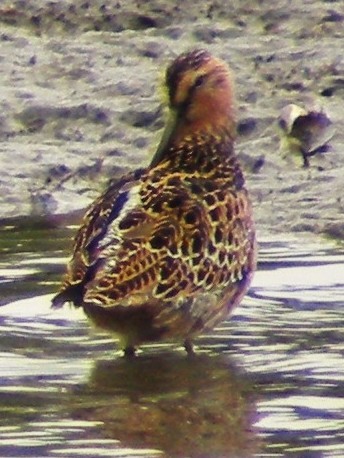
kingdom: Animalia
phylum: Chordata
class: Aves
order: Charadriiformes
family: Scolopacidae
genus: Limnodromus
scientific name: Limnodromus griseus
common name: Short-billed dowitcher
